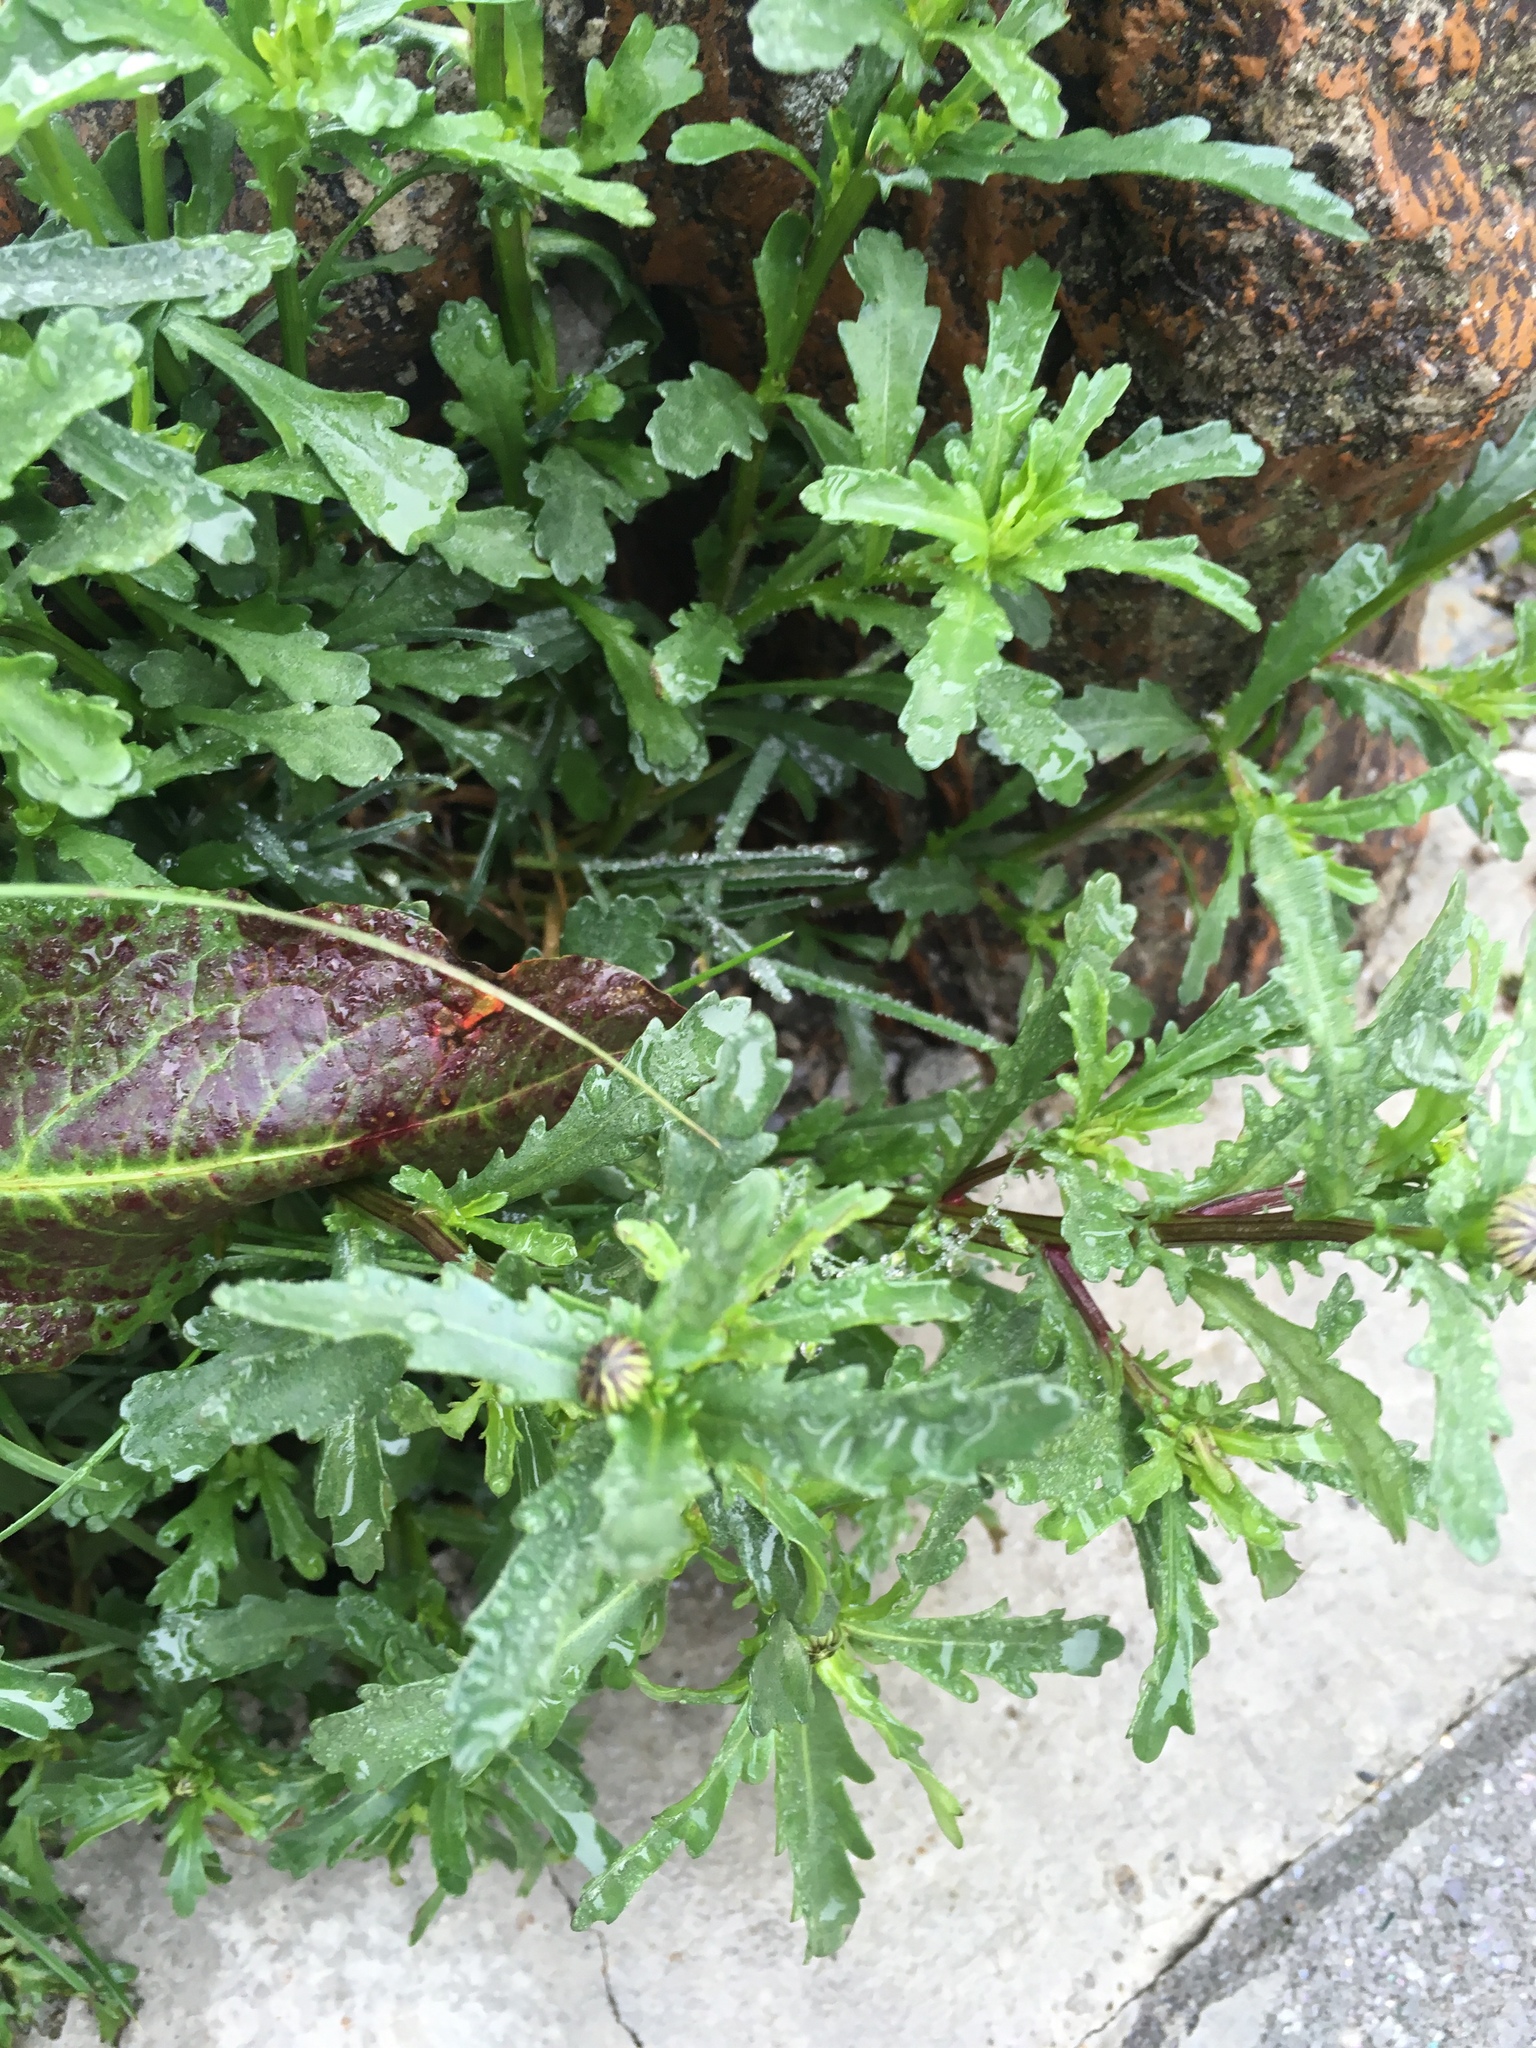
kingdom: Plantae
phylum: Tracheophyta
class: Magnoliopsida
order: Asterales
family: Asteraceae
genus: Leucanthemum
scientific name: Leucanthemum vulgare
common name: Oxeye daisy
